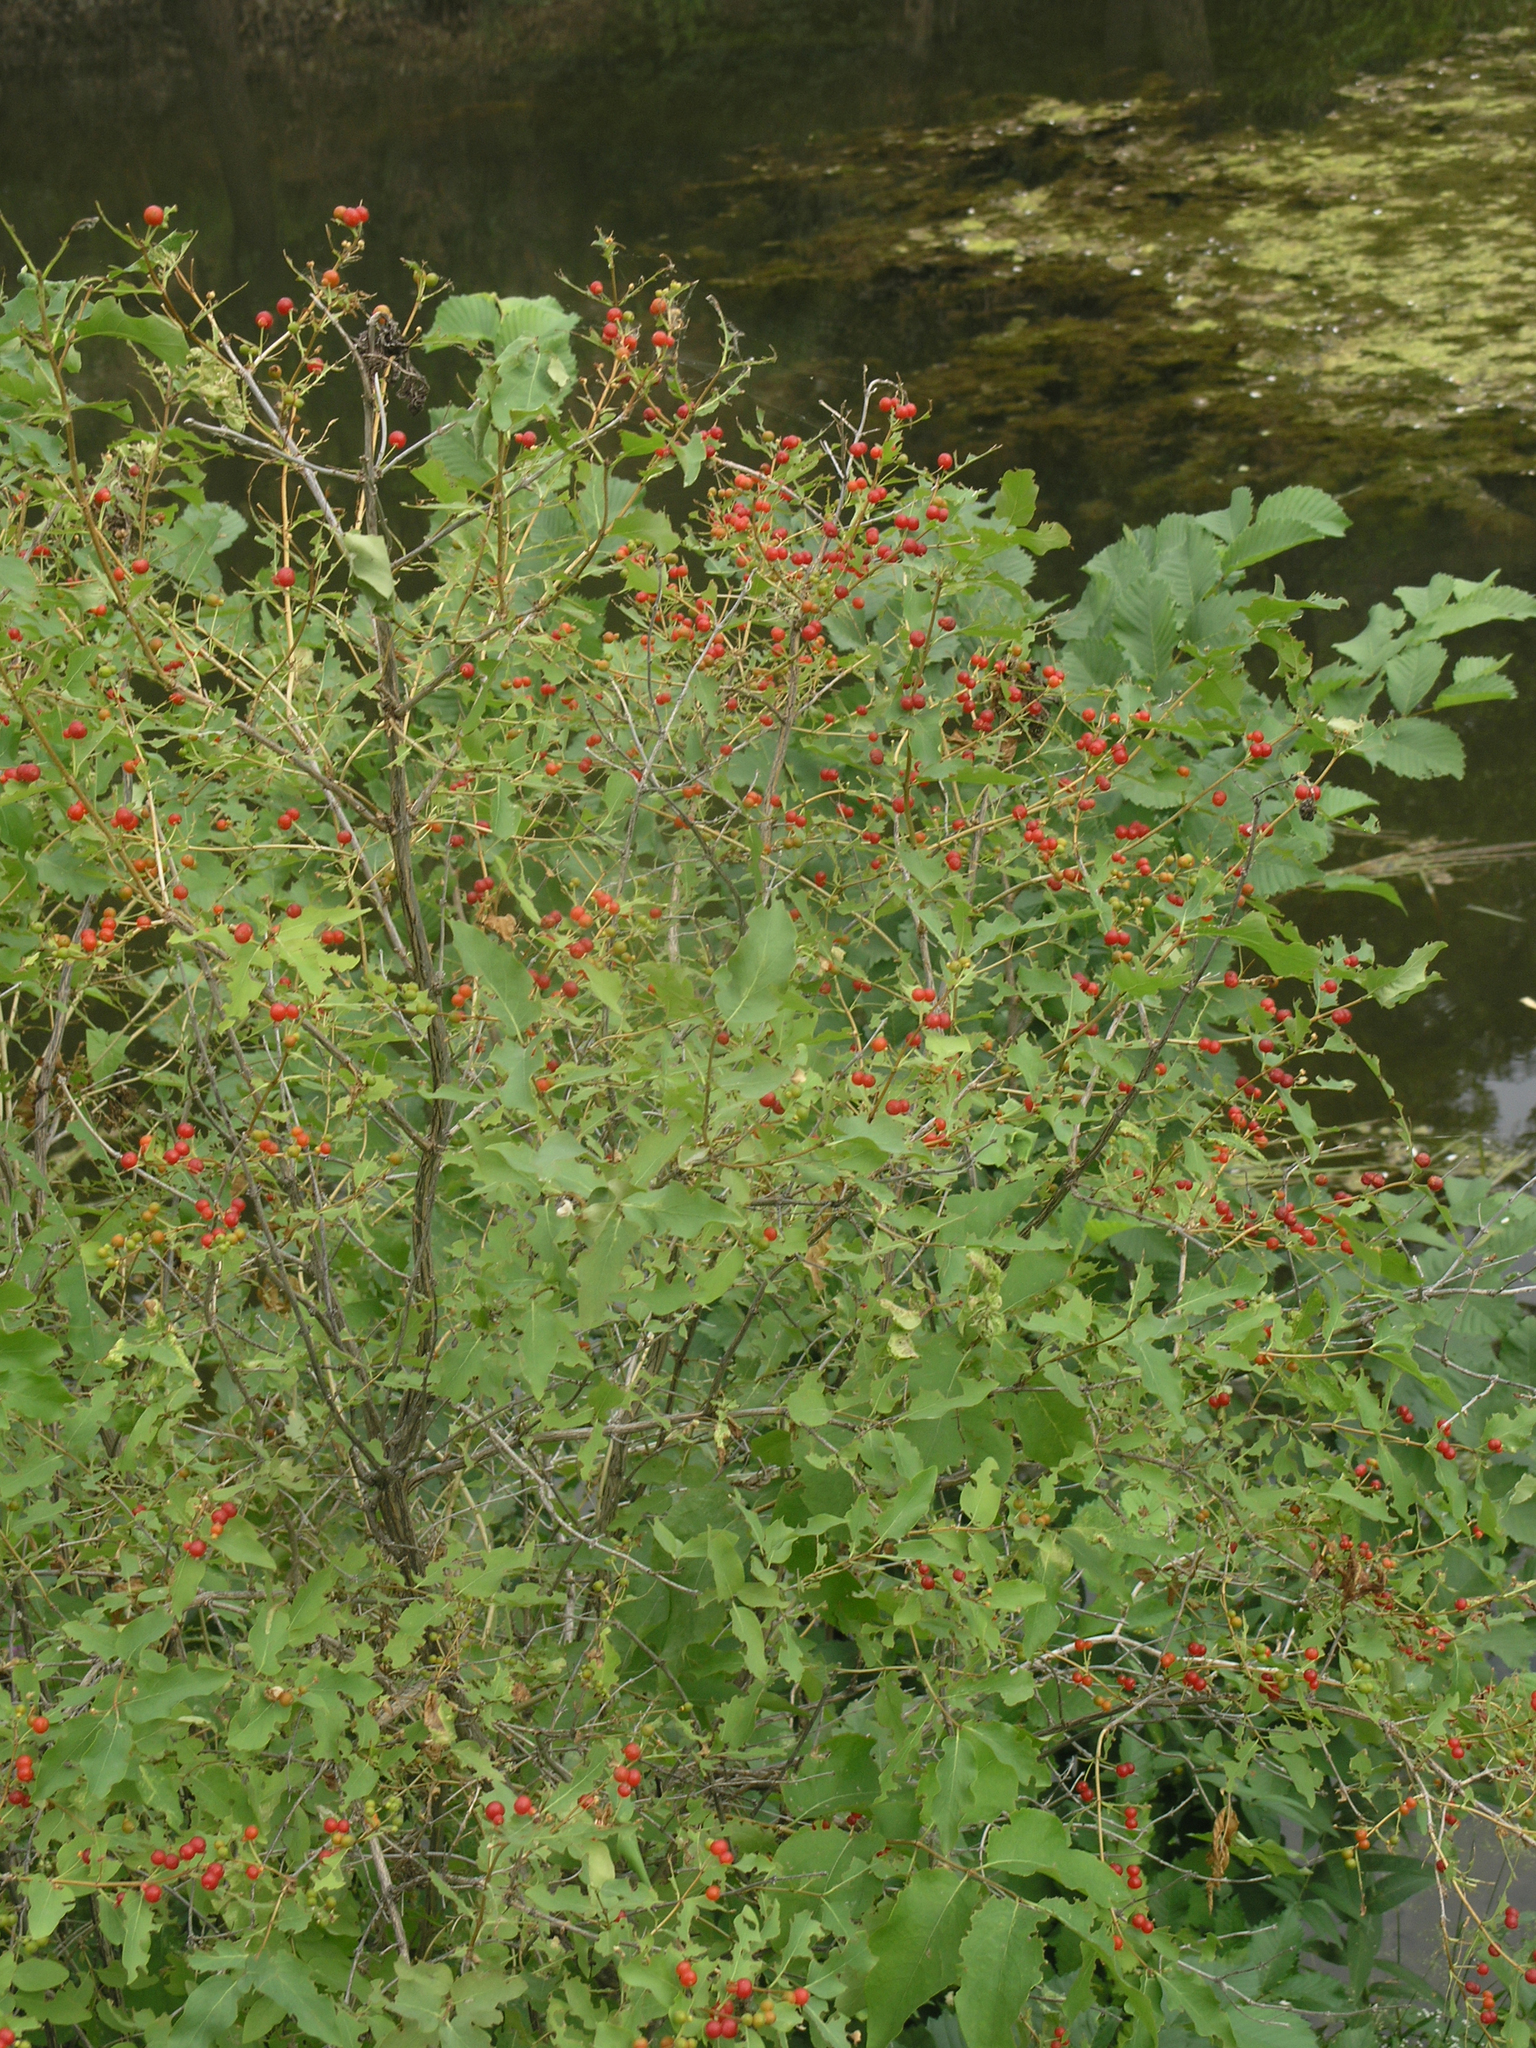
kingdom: Plantae
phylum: Tracheophyta
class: Magnoliopsida
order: Dipsacales
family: Caprifoliaceae
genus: Lonicera
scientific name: Lonicera tatarica
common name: Tatarian honeysuckle
